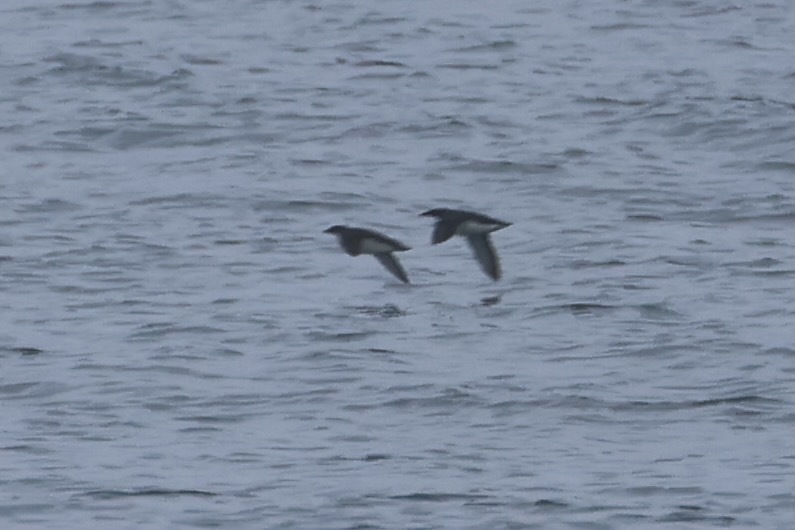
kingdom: Animalia
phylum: Chordata
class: Aves
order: Charadriiformes
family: Alcidae
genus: Synthliboramphus
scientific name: Synthliboramphus scrippsi
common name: Scripps's murrelet
